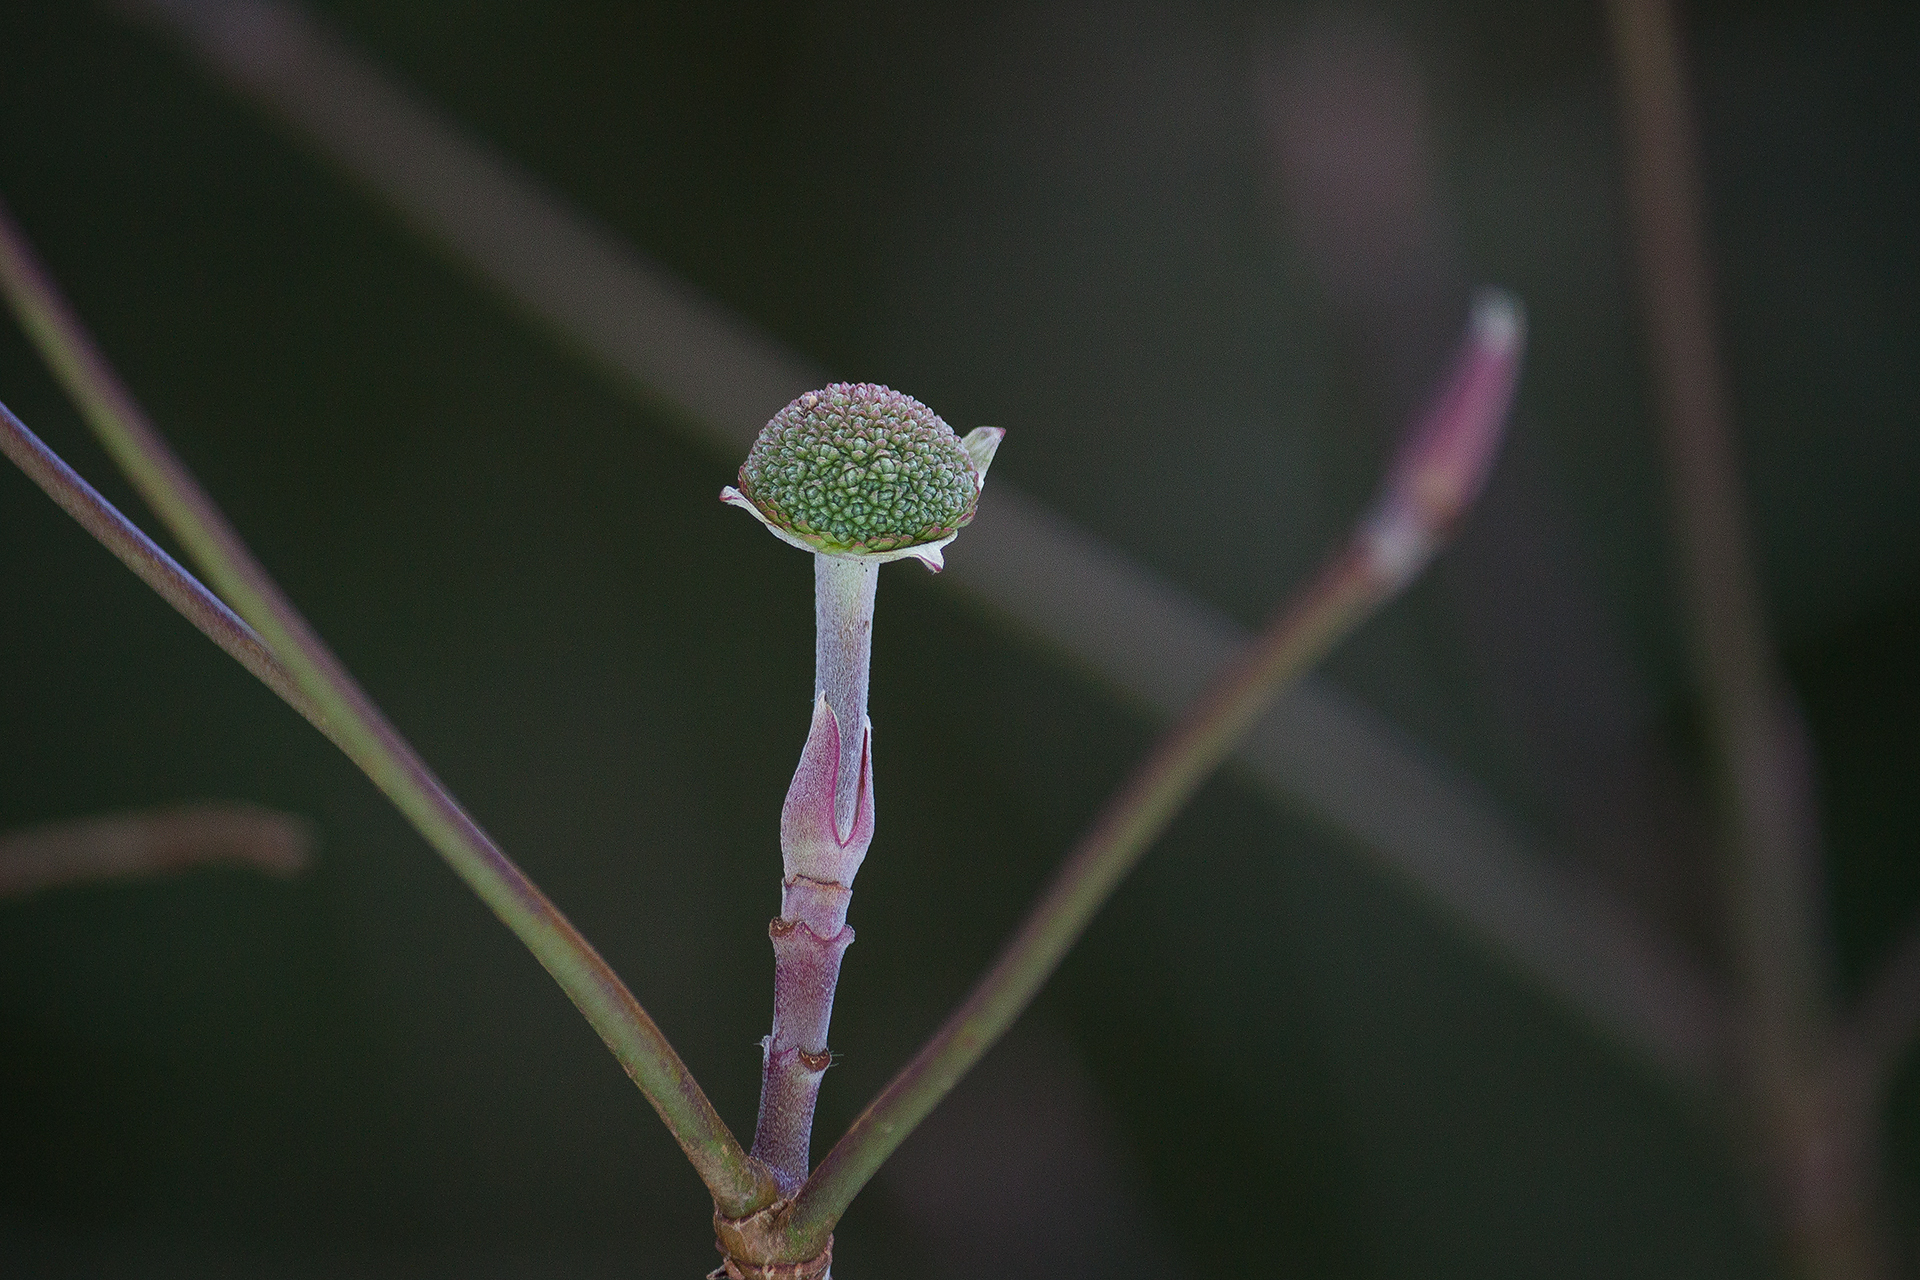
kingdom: Plantae
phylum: Tracheophyta
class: Magnoliopsida
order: Cornales
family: Cornaceae
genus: Cornus
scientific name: Cornus nuttallii
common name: Pacific dogwood
